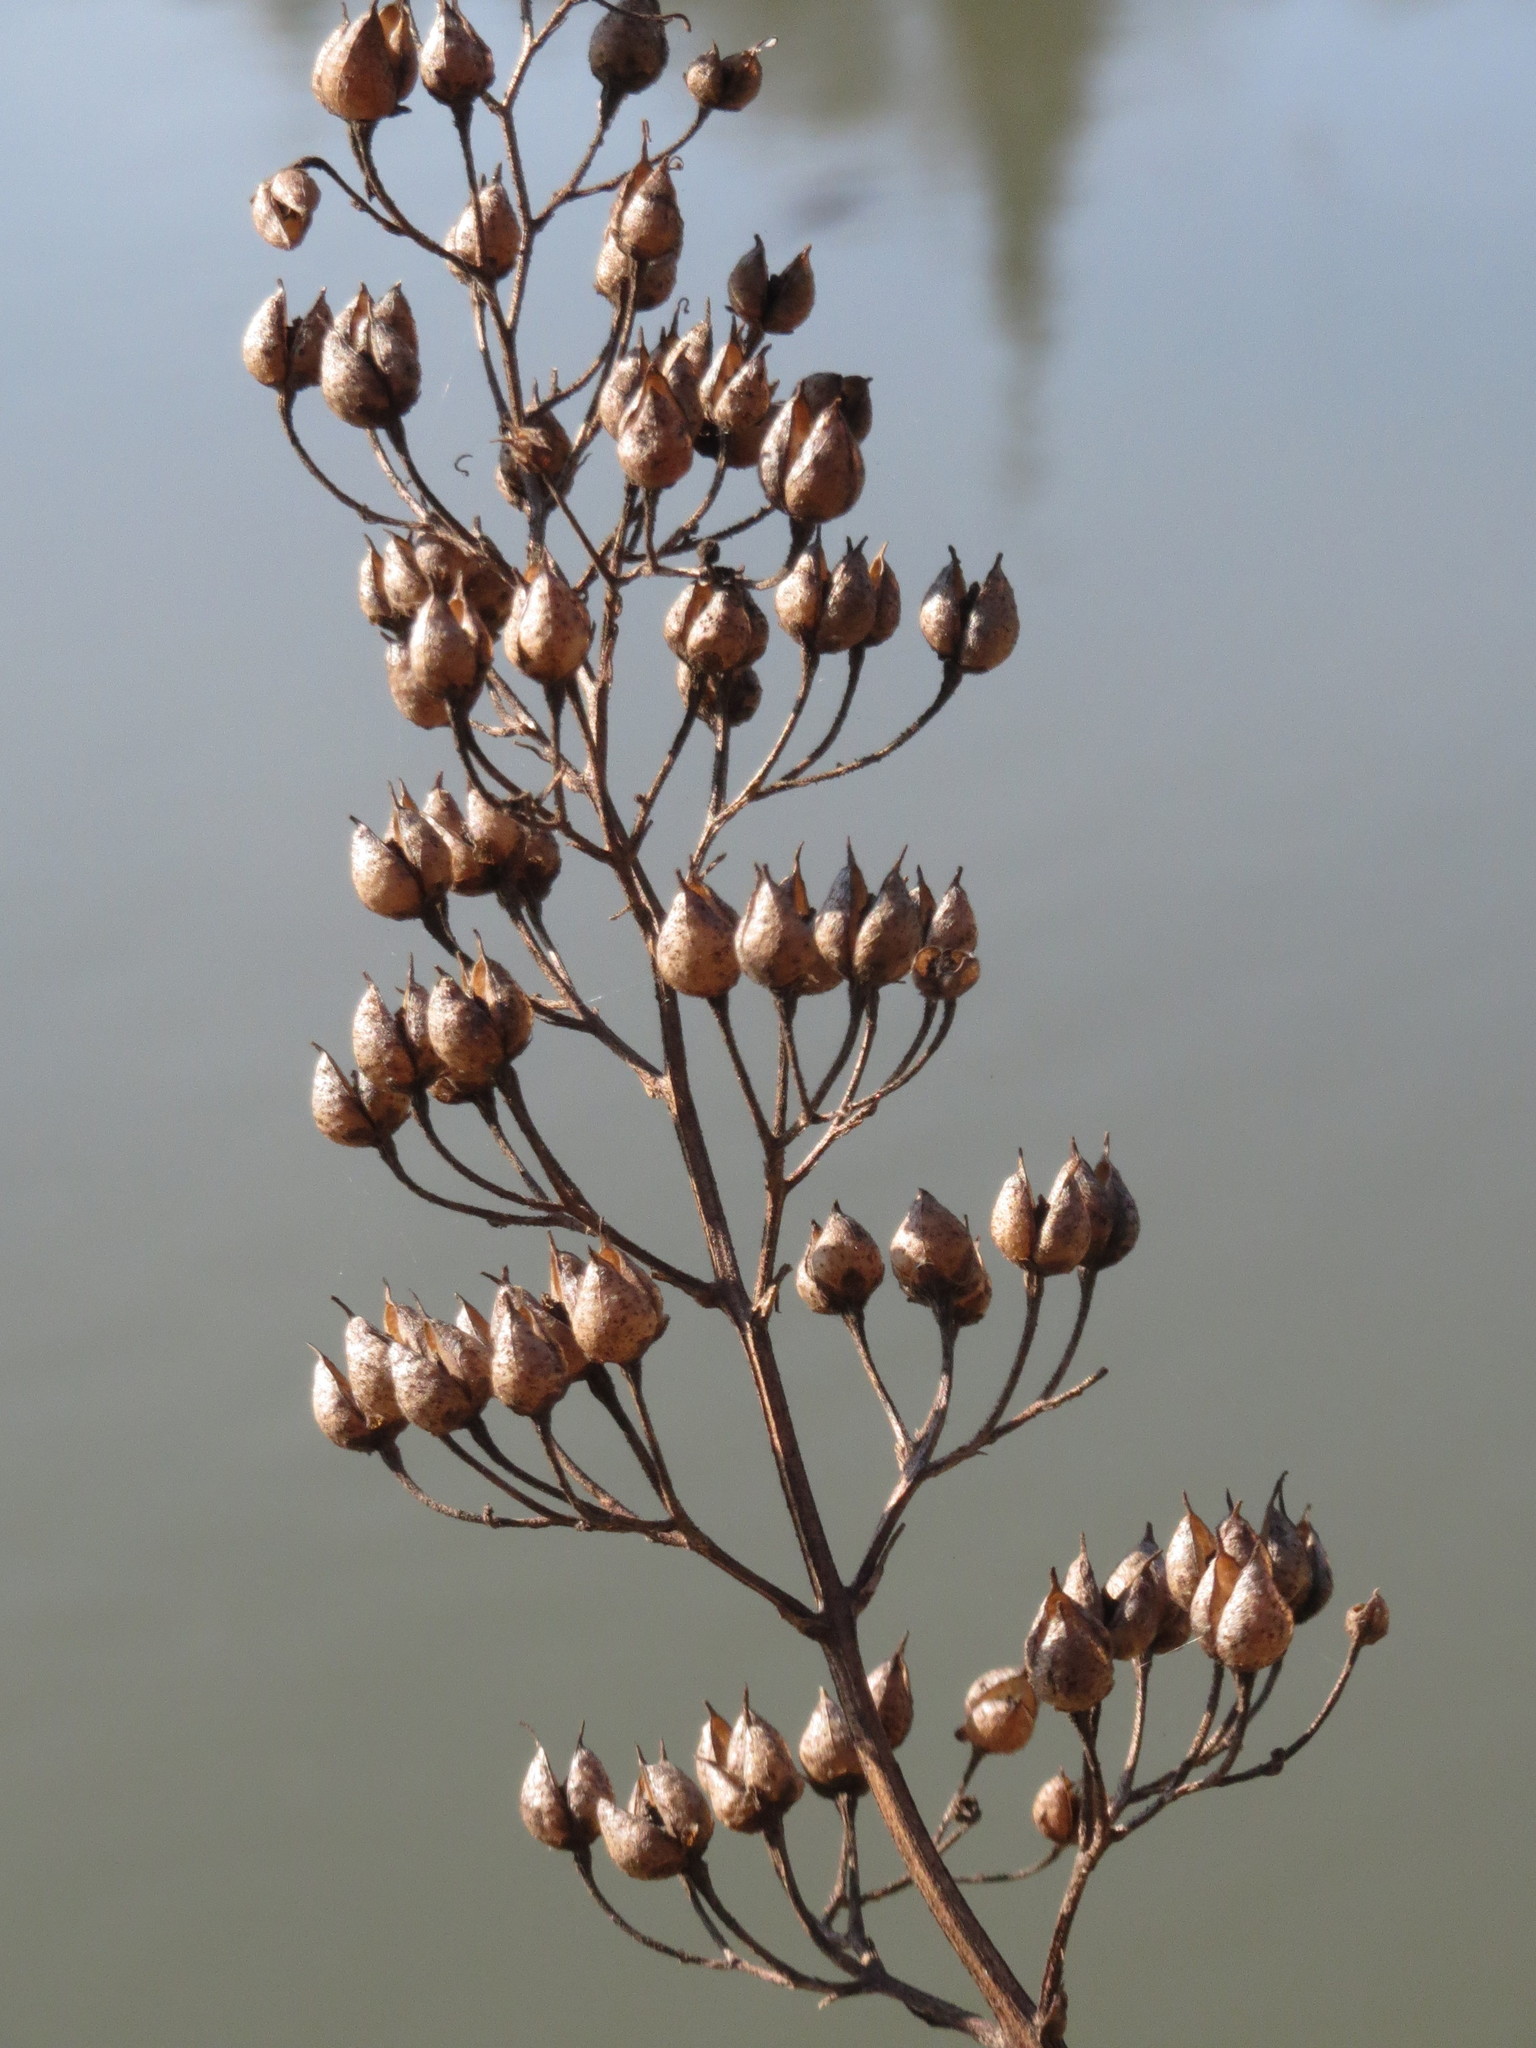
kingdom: Plantae
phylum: Tracheophyta
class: Magnoliopsida
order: Lamiales
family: Scrophulariaceae
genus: Scrophularia
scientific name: Scrophularia nodosa
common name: Common figwort
